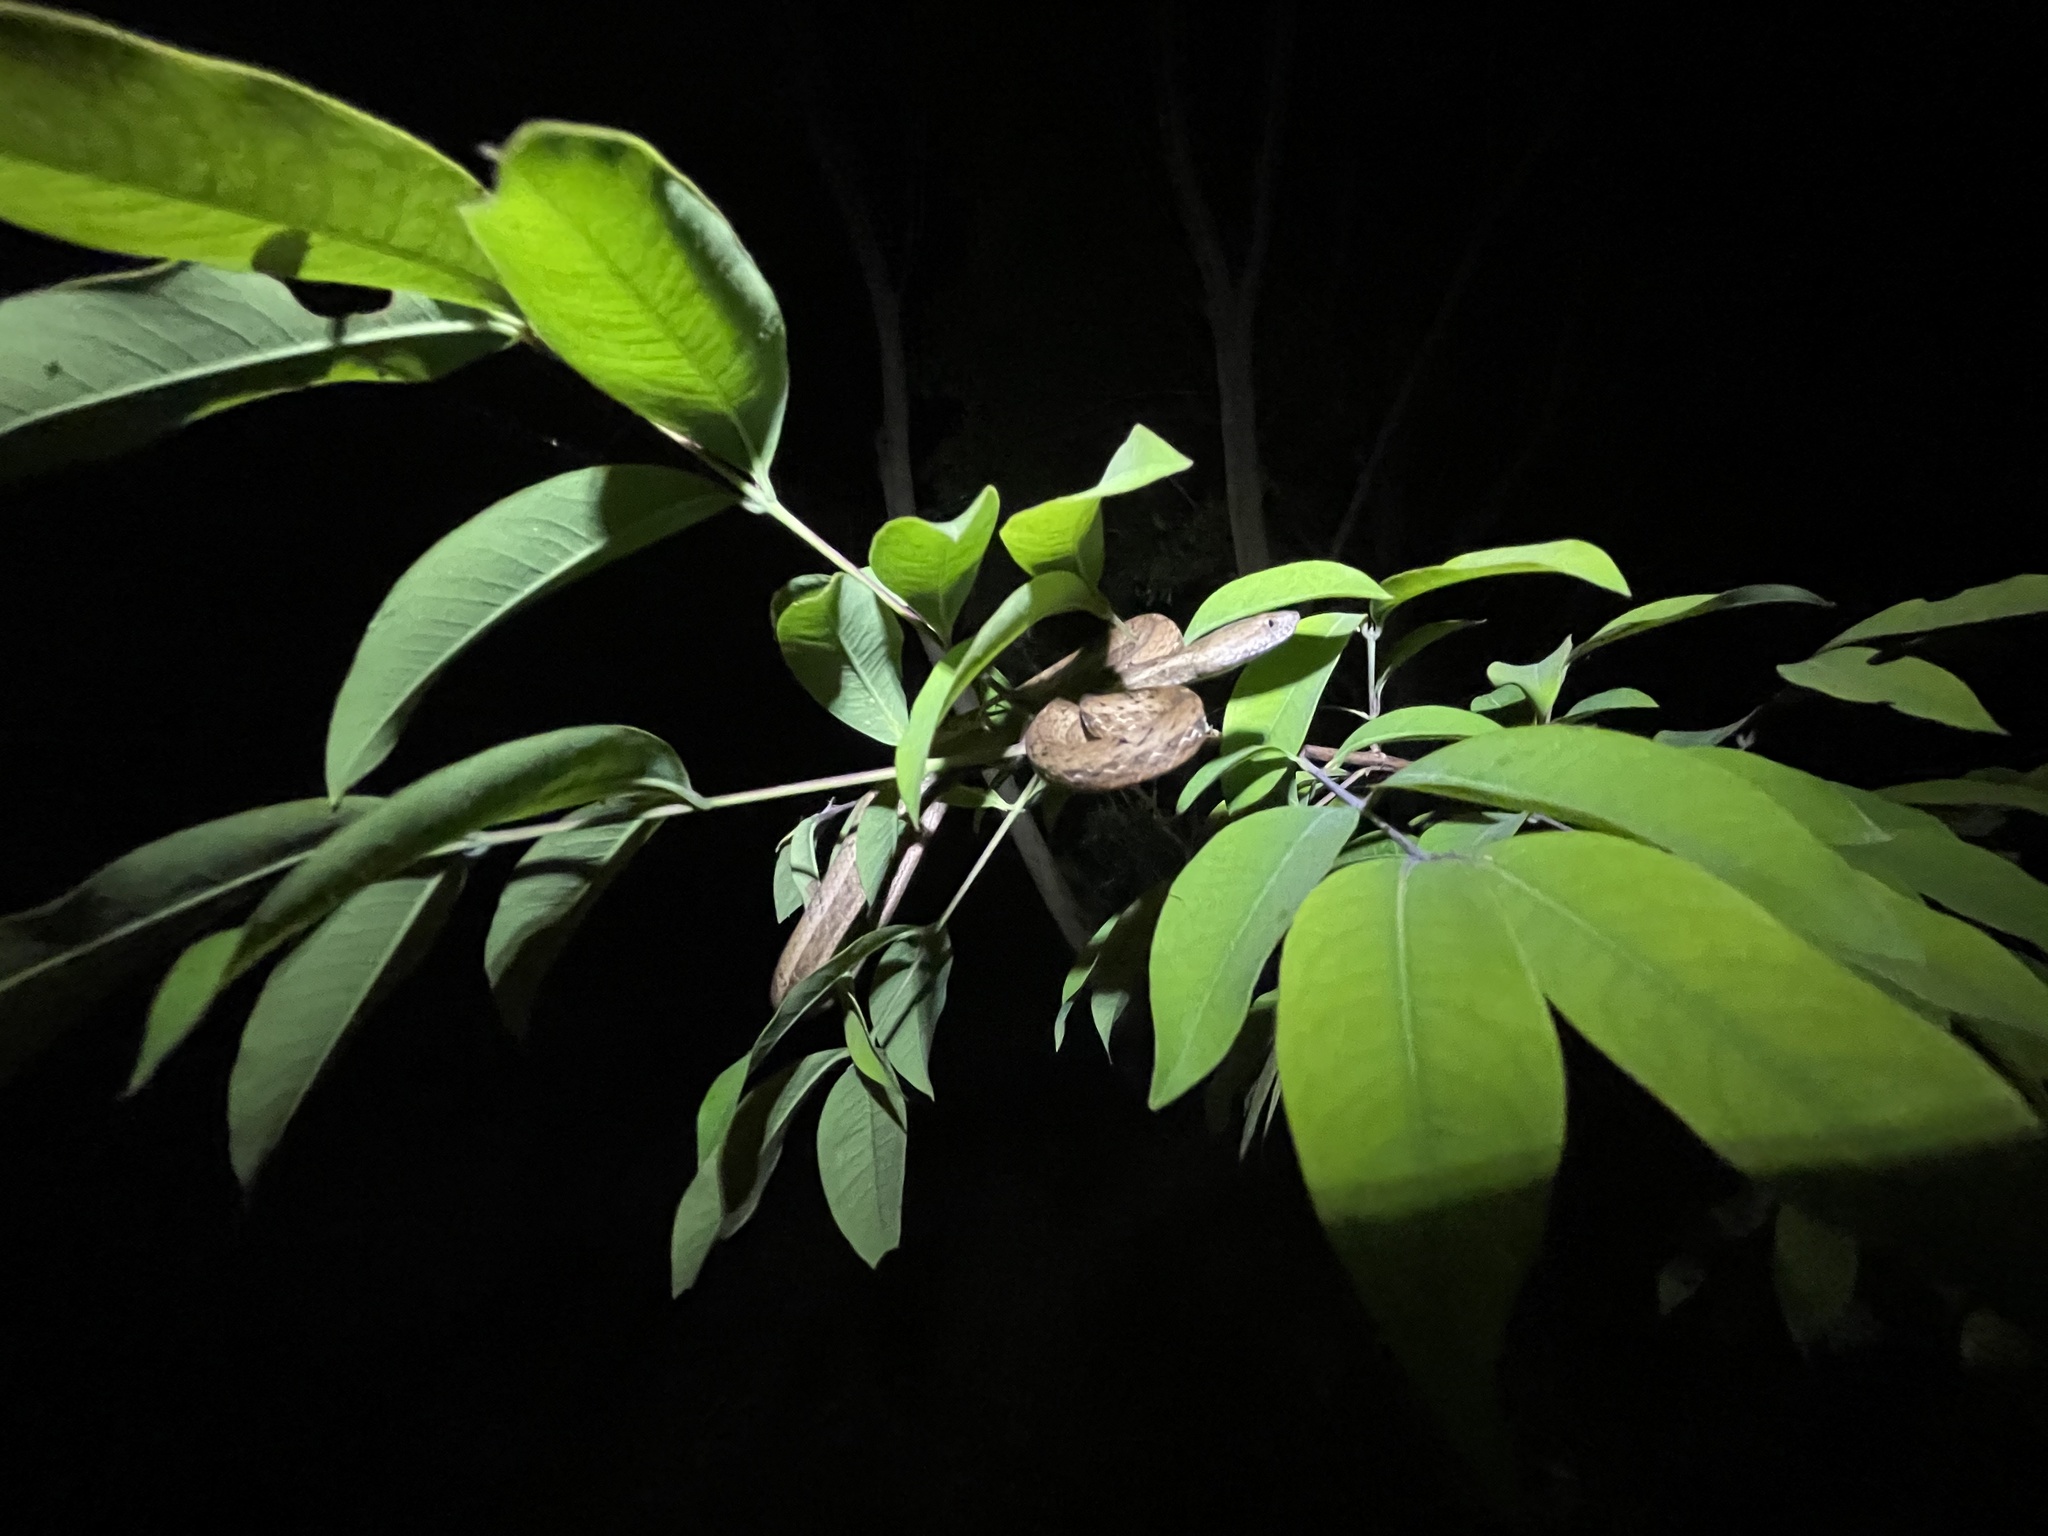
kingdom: Animalia
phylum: Chordata
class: Squamata
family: Pseudaspididae
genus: Psammodynastes
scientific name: Psammodynastes pulverulentus
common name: Common mock viper
